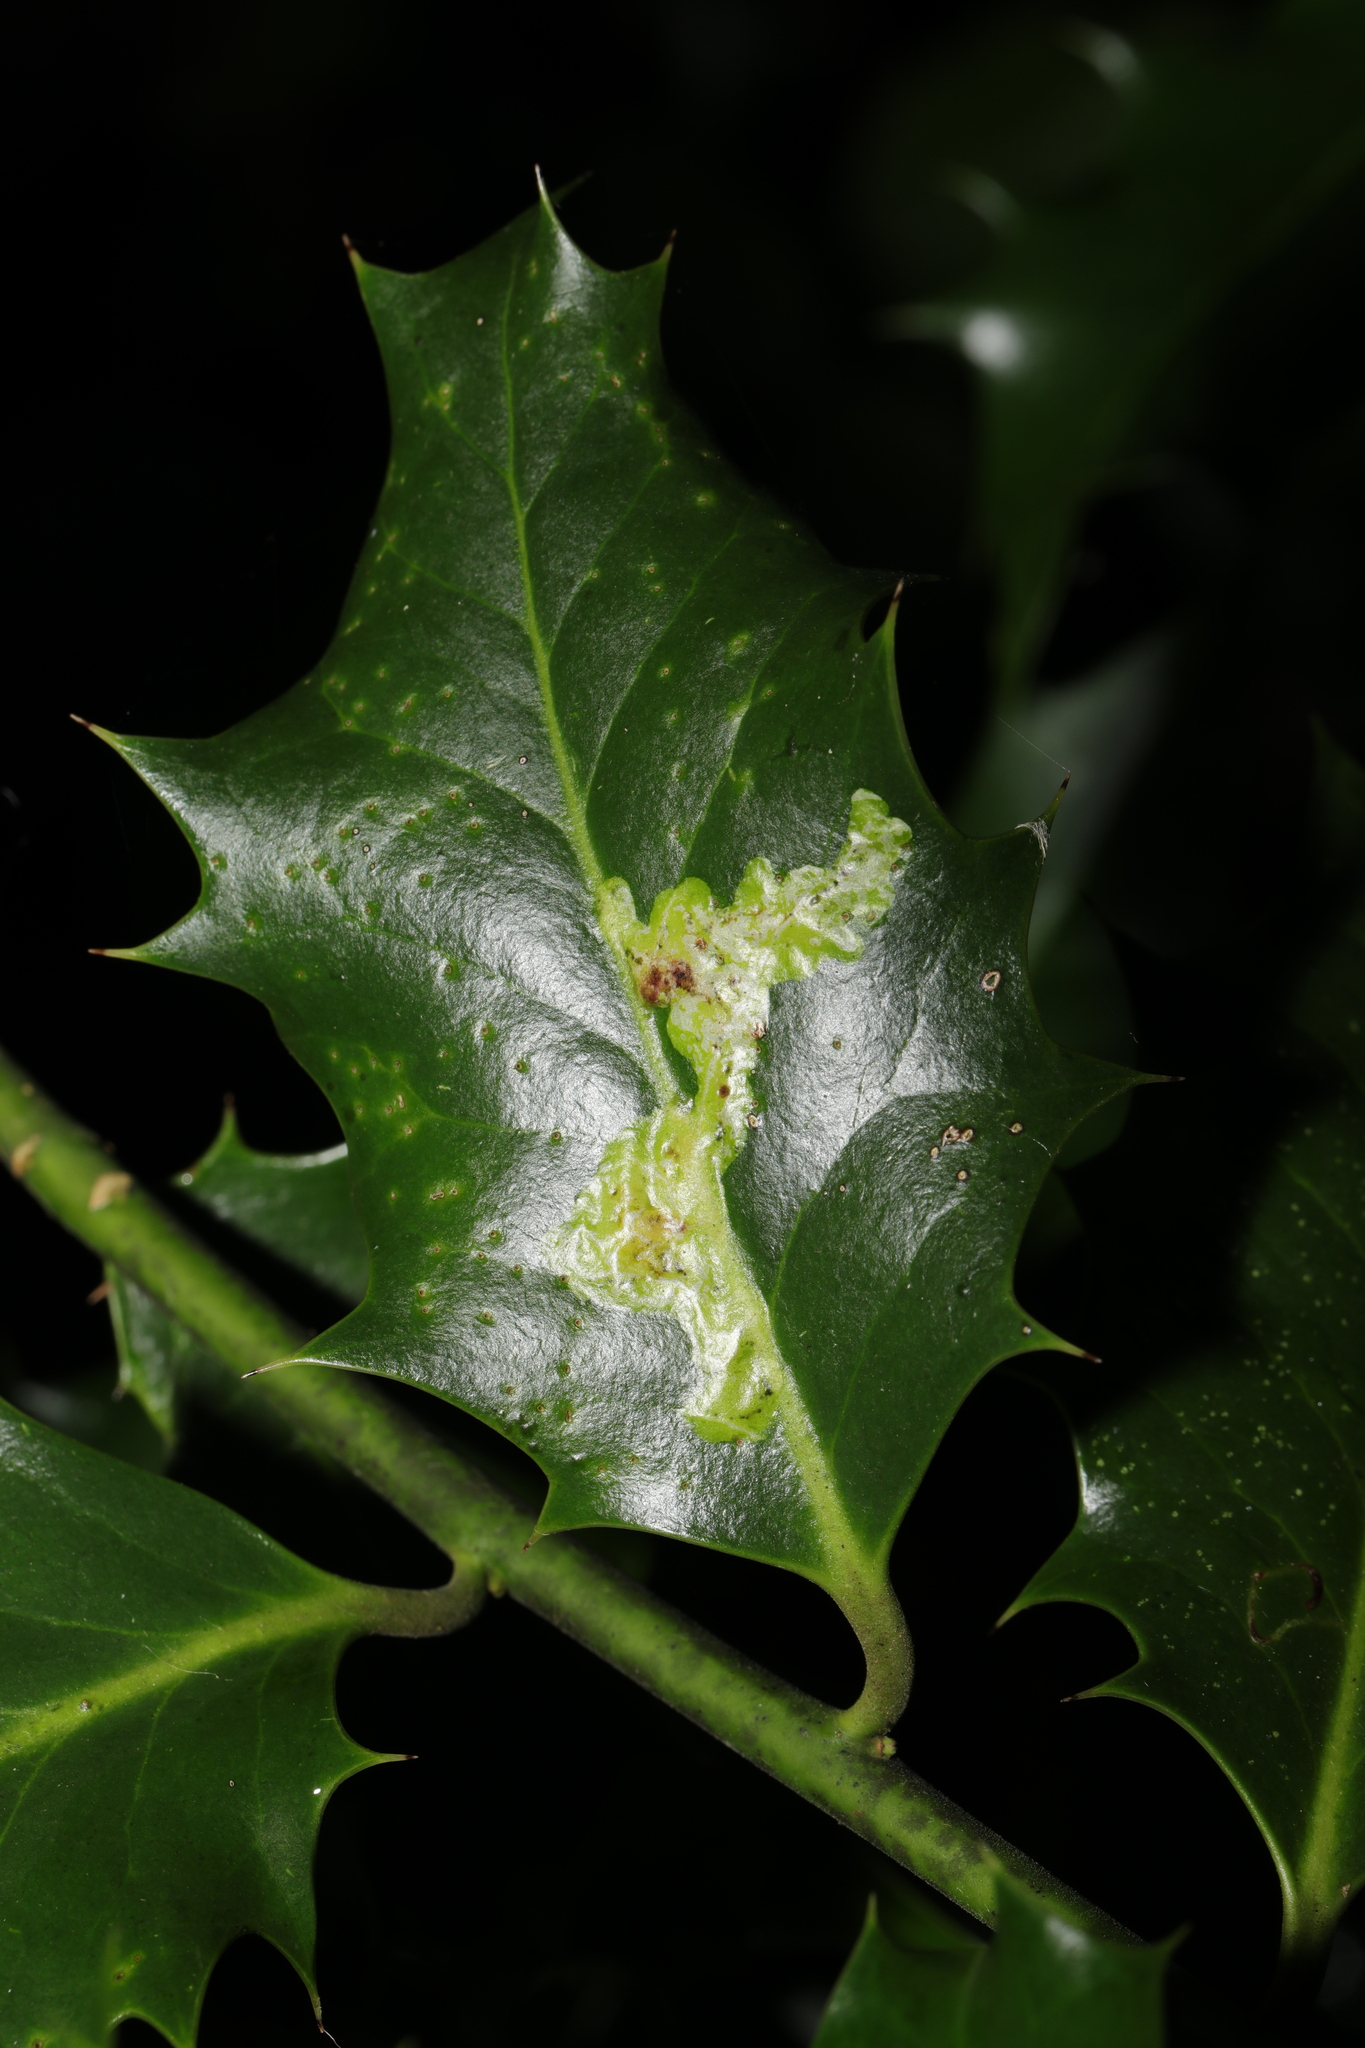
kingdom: Animalia
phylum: Arthropoda
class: Insecta
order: Diptera
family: Agromyzidae
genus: Phytomyza
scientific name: Phytomyza ilicis
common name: Holly leafminer
